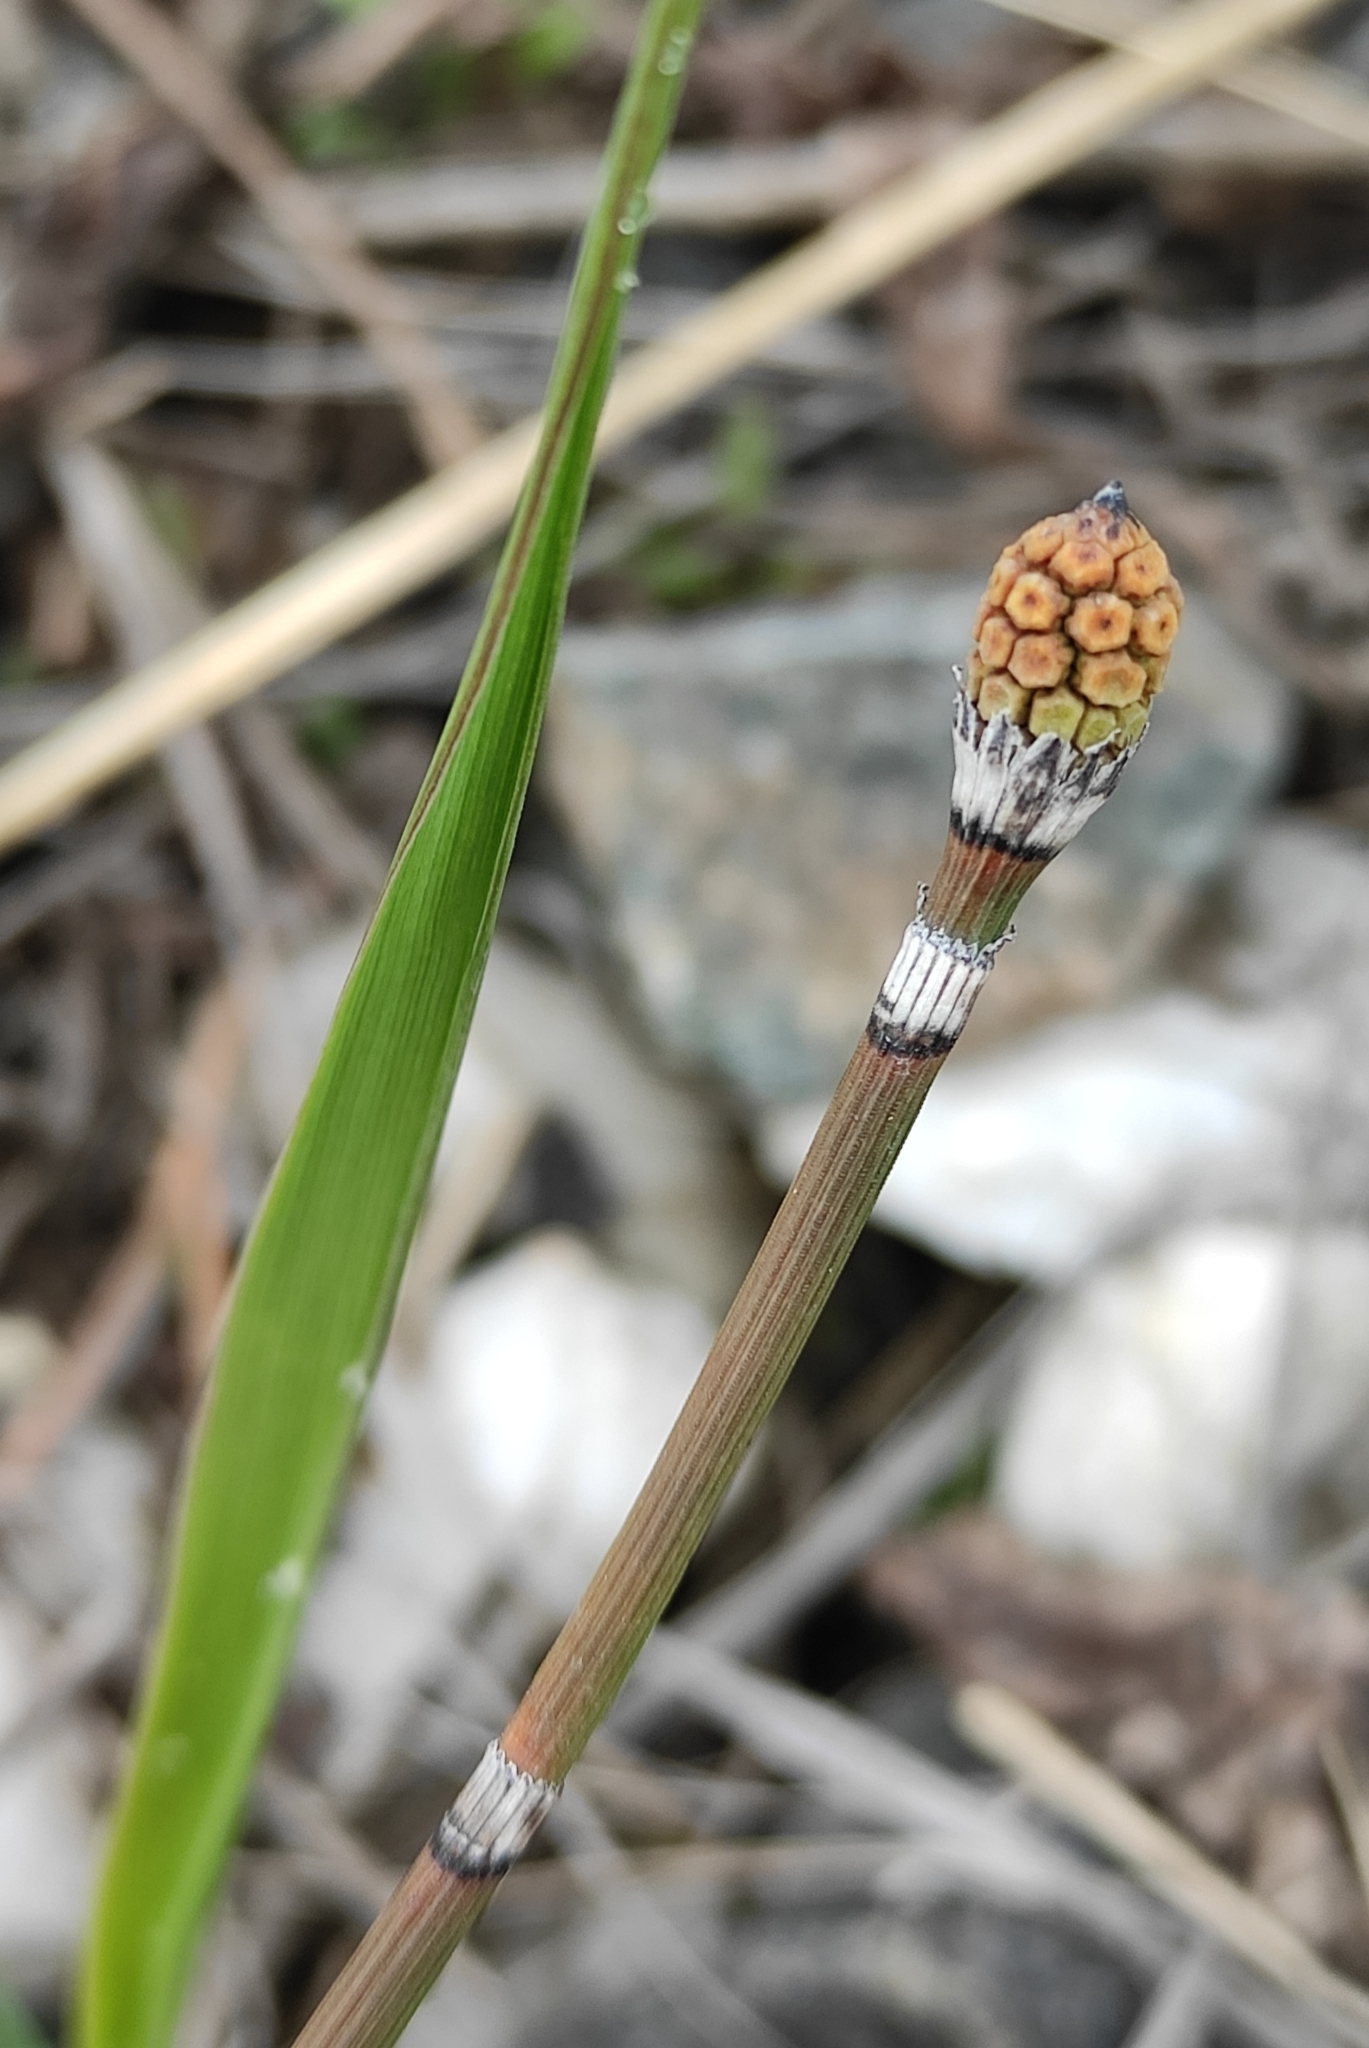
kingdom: Plantae
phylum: Tracheophyta
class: Polypodiopsida
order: Equisetales
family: Equisetaceae
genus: Equisetum
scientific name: Equisetum hyemale
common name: Rough horsetail
